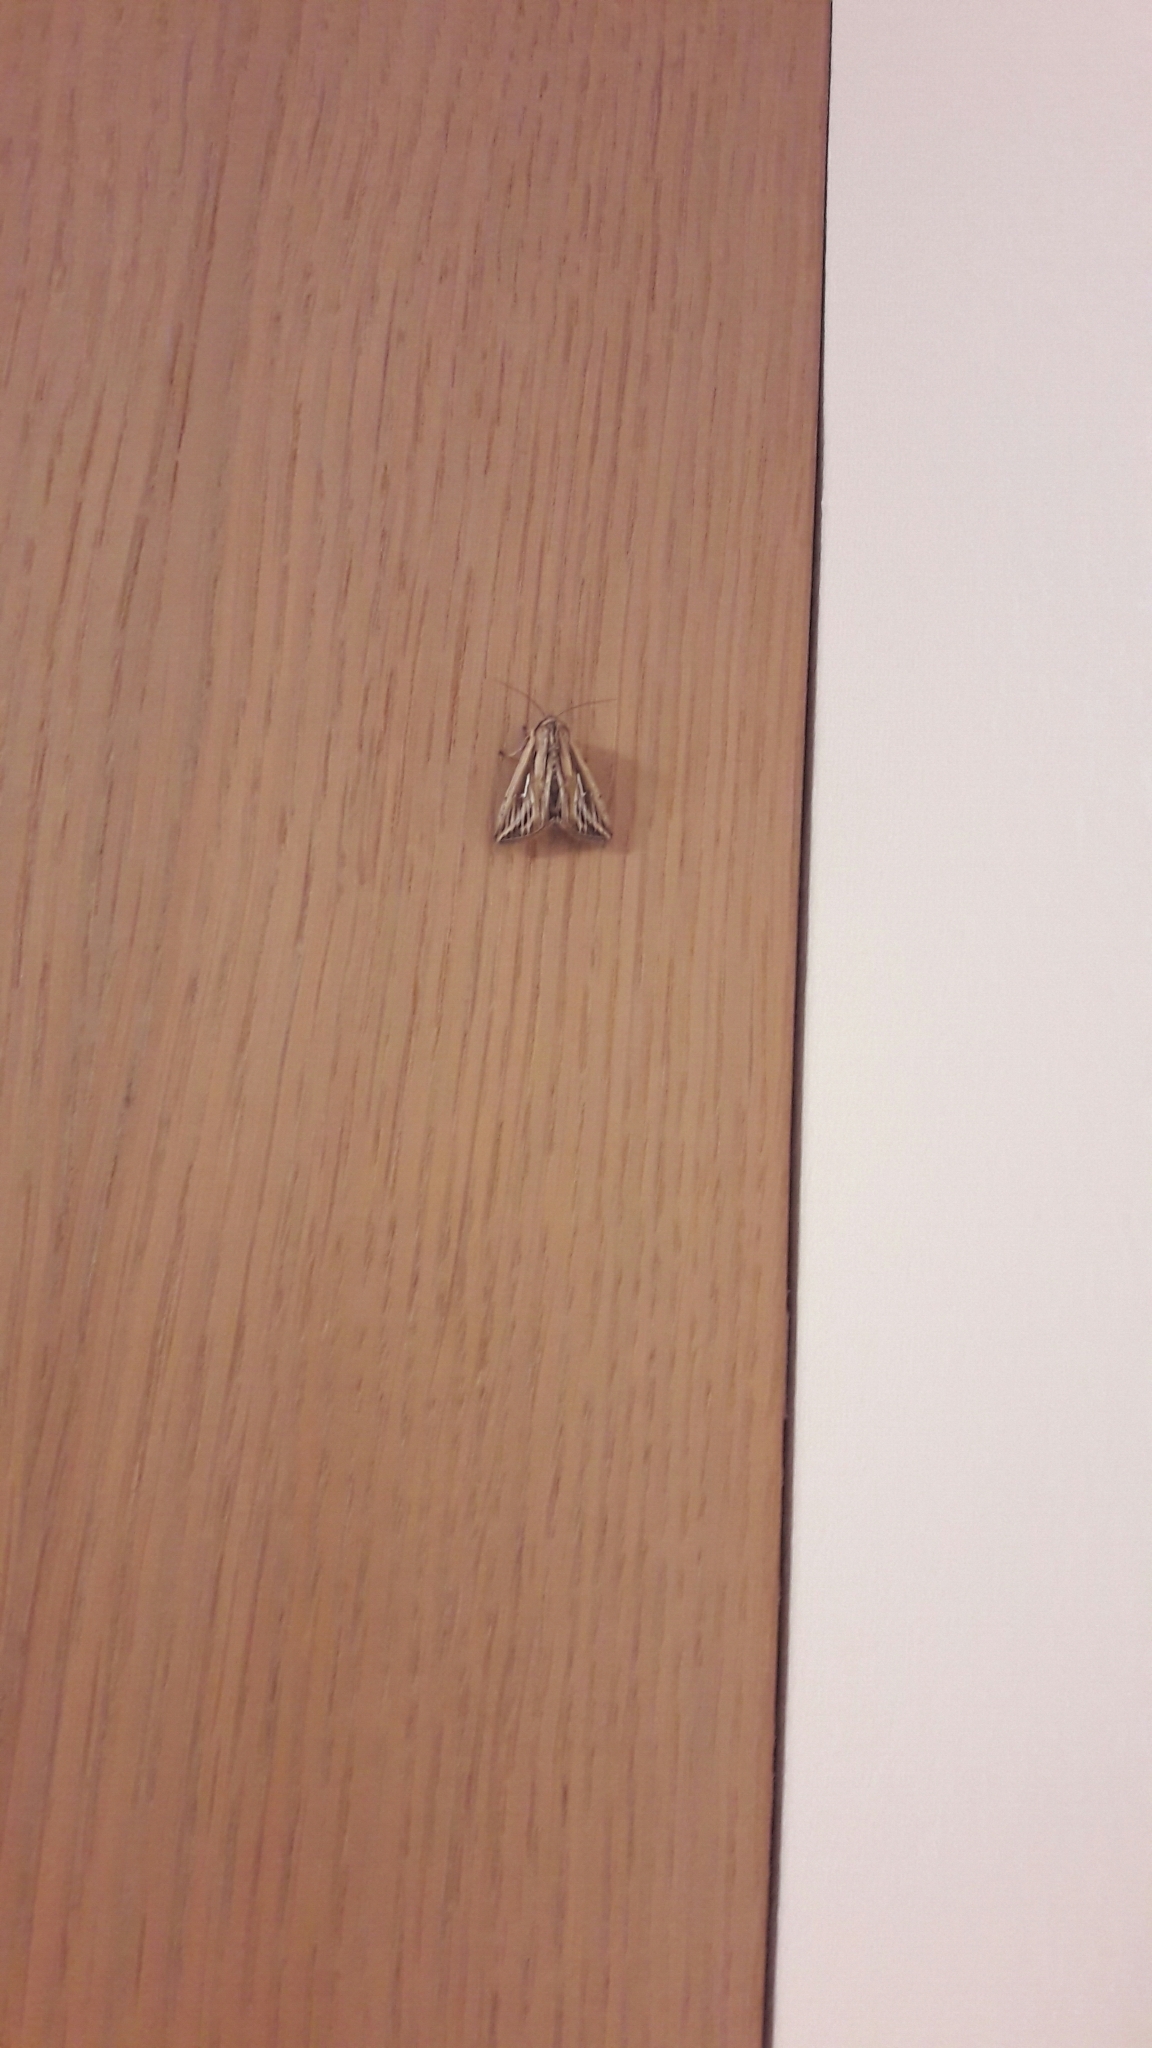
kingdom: Animalia
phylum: Arthropoda
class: Insecta
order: Lepidoptera
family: Noctuidae
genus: Mythimna
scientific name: Mythimna l-album
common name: L-album wainscot
